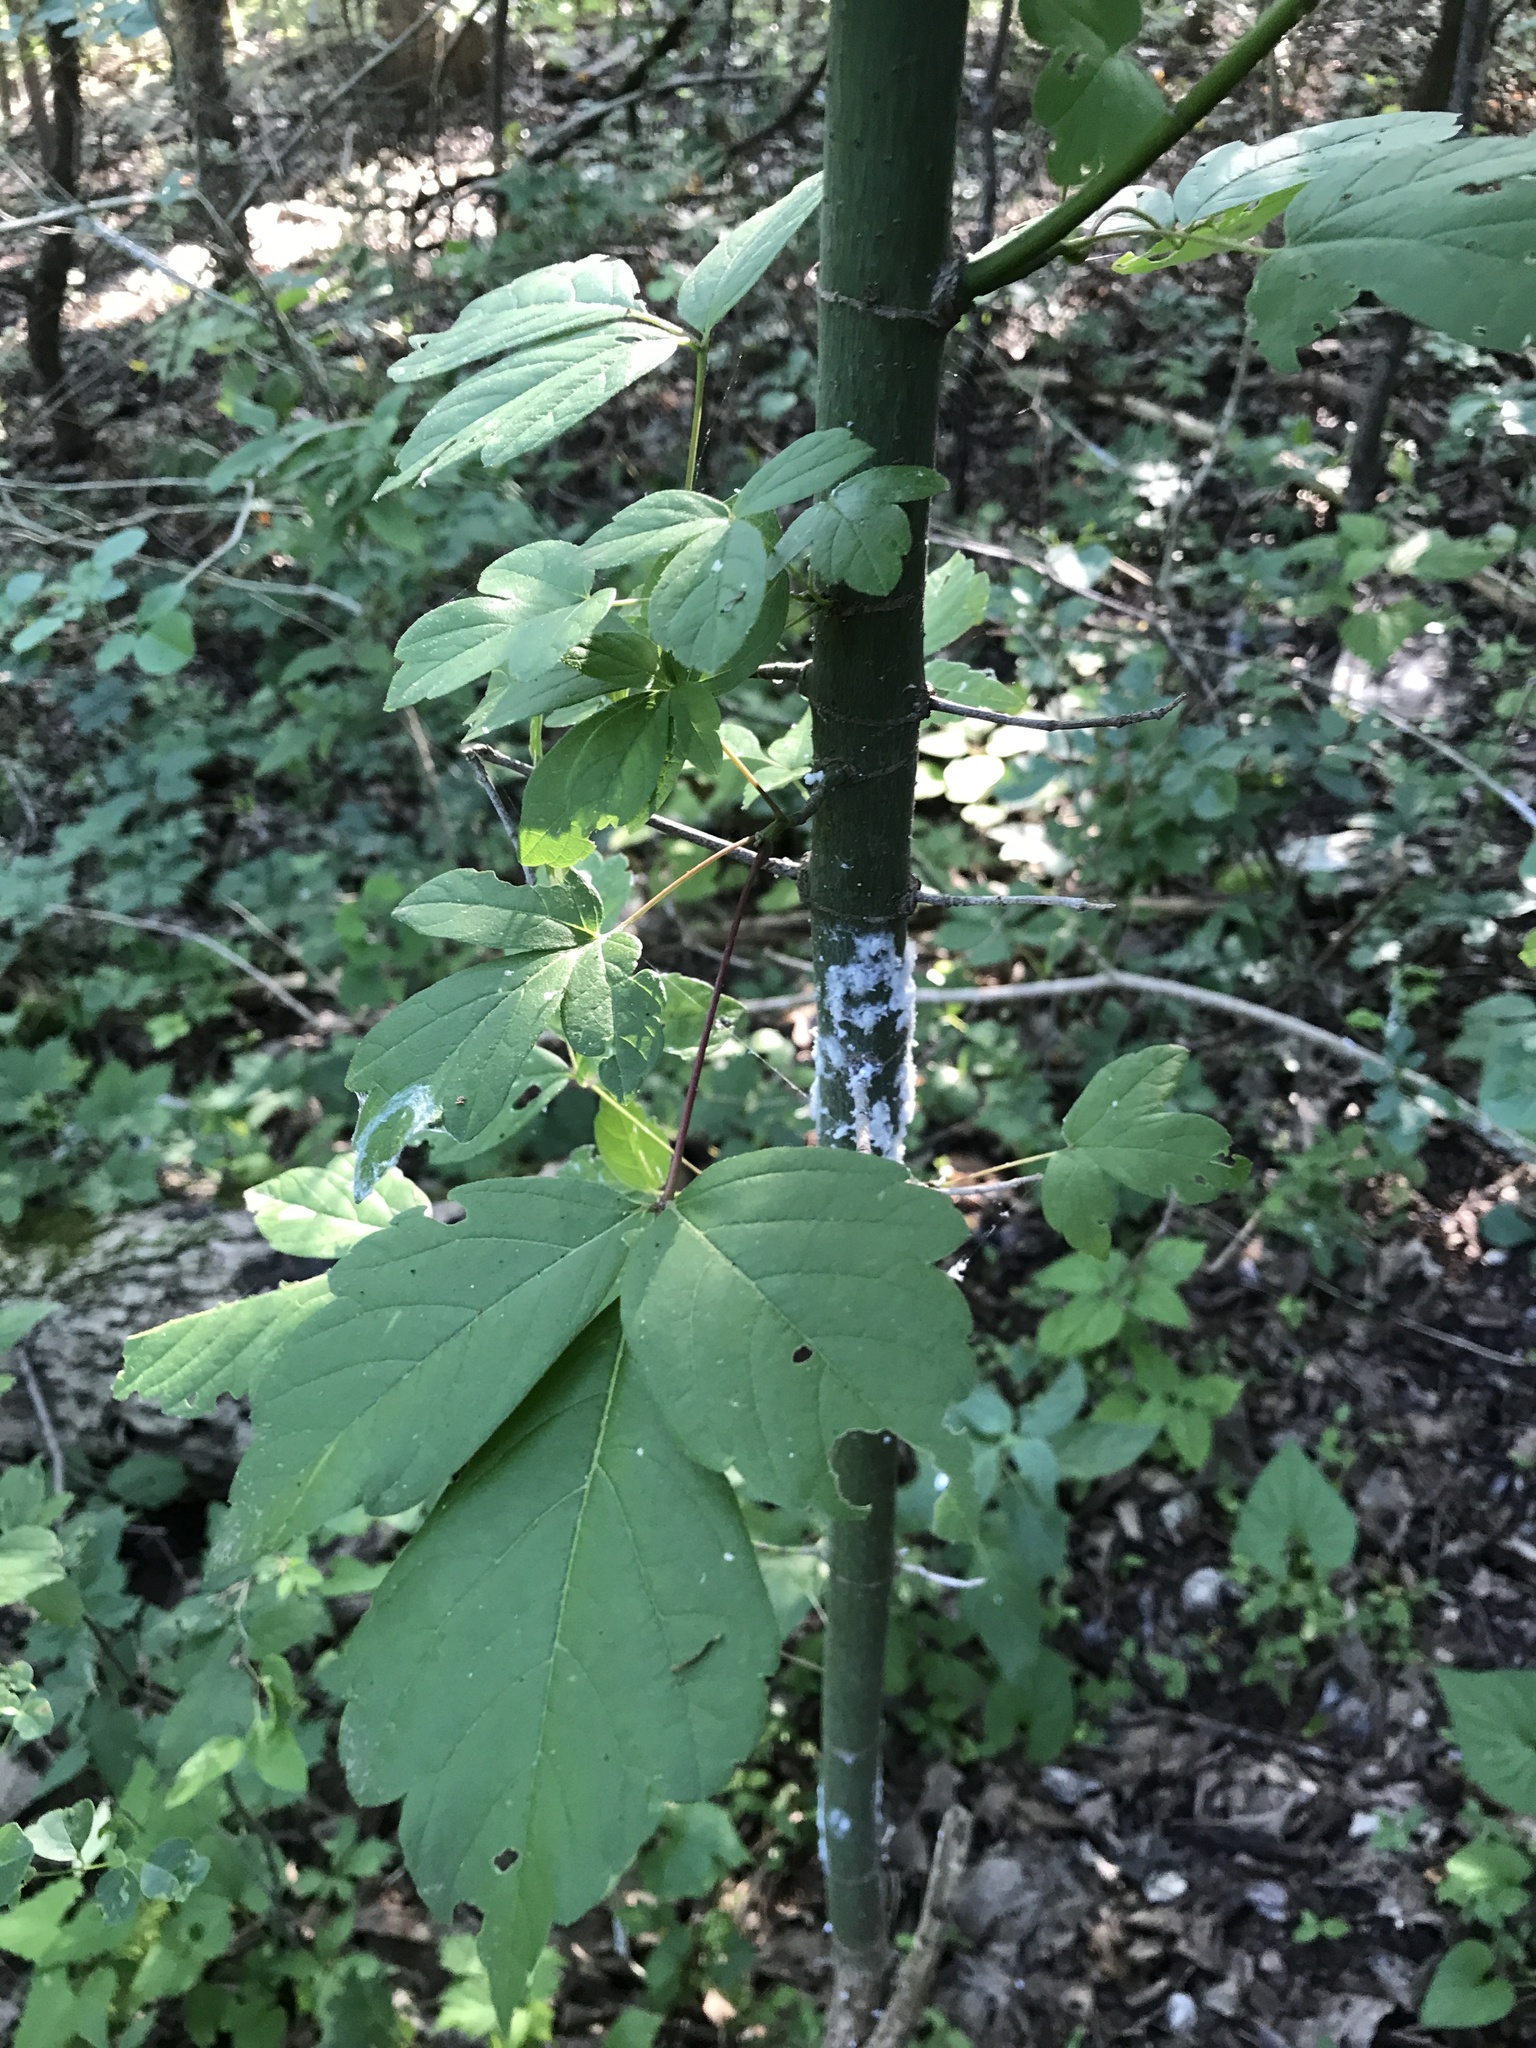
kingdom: Plantae
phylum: Tracheophyta
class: Magnoliopsida
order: Sapindales
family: Sapindaceae
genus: Acer
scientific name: Acer negundo
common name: Ashleaf maple
